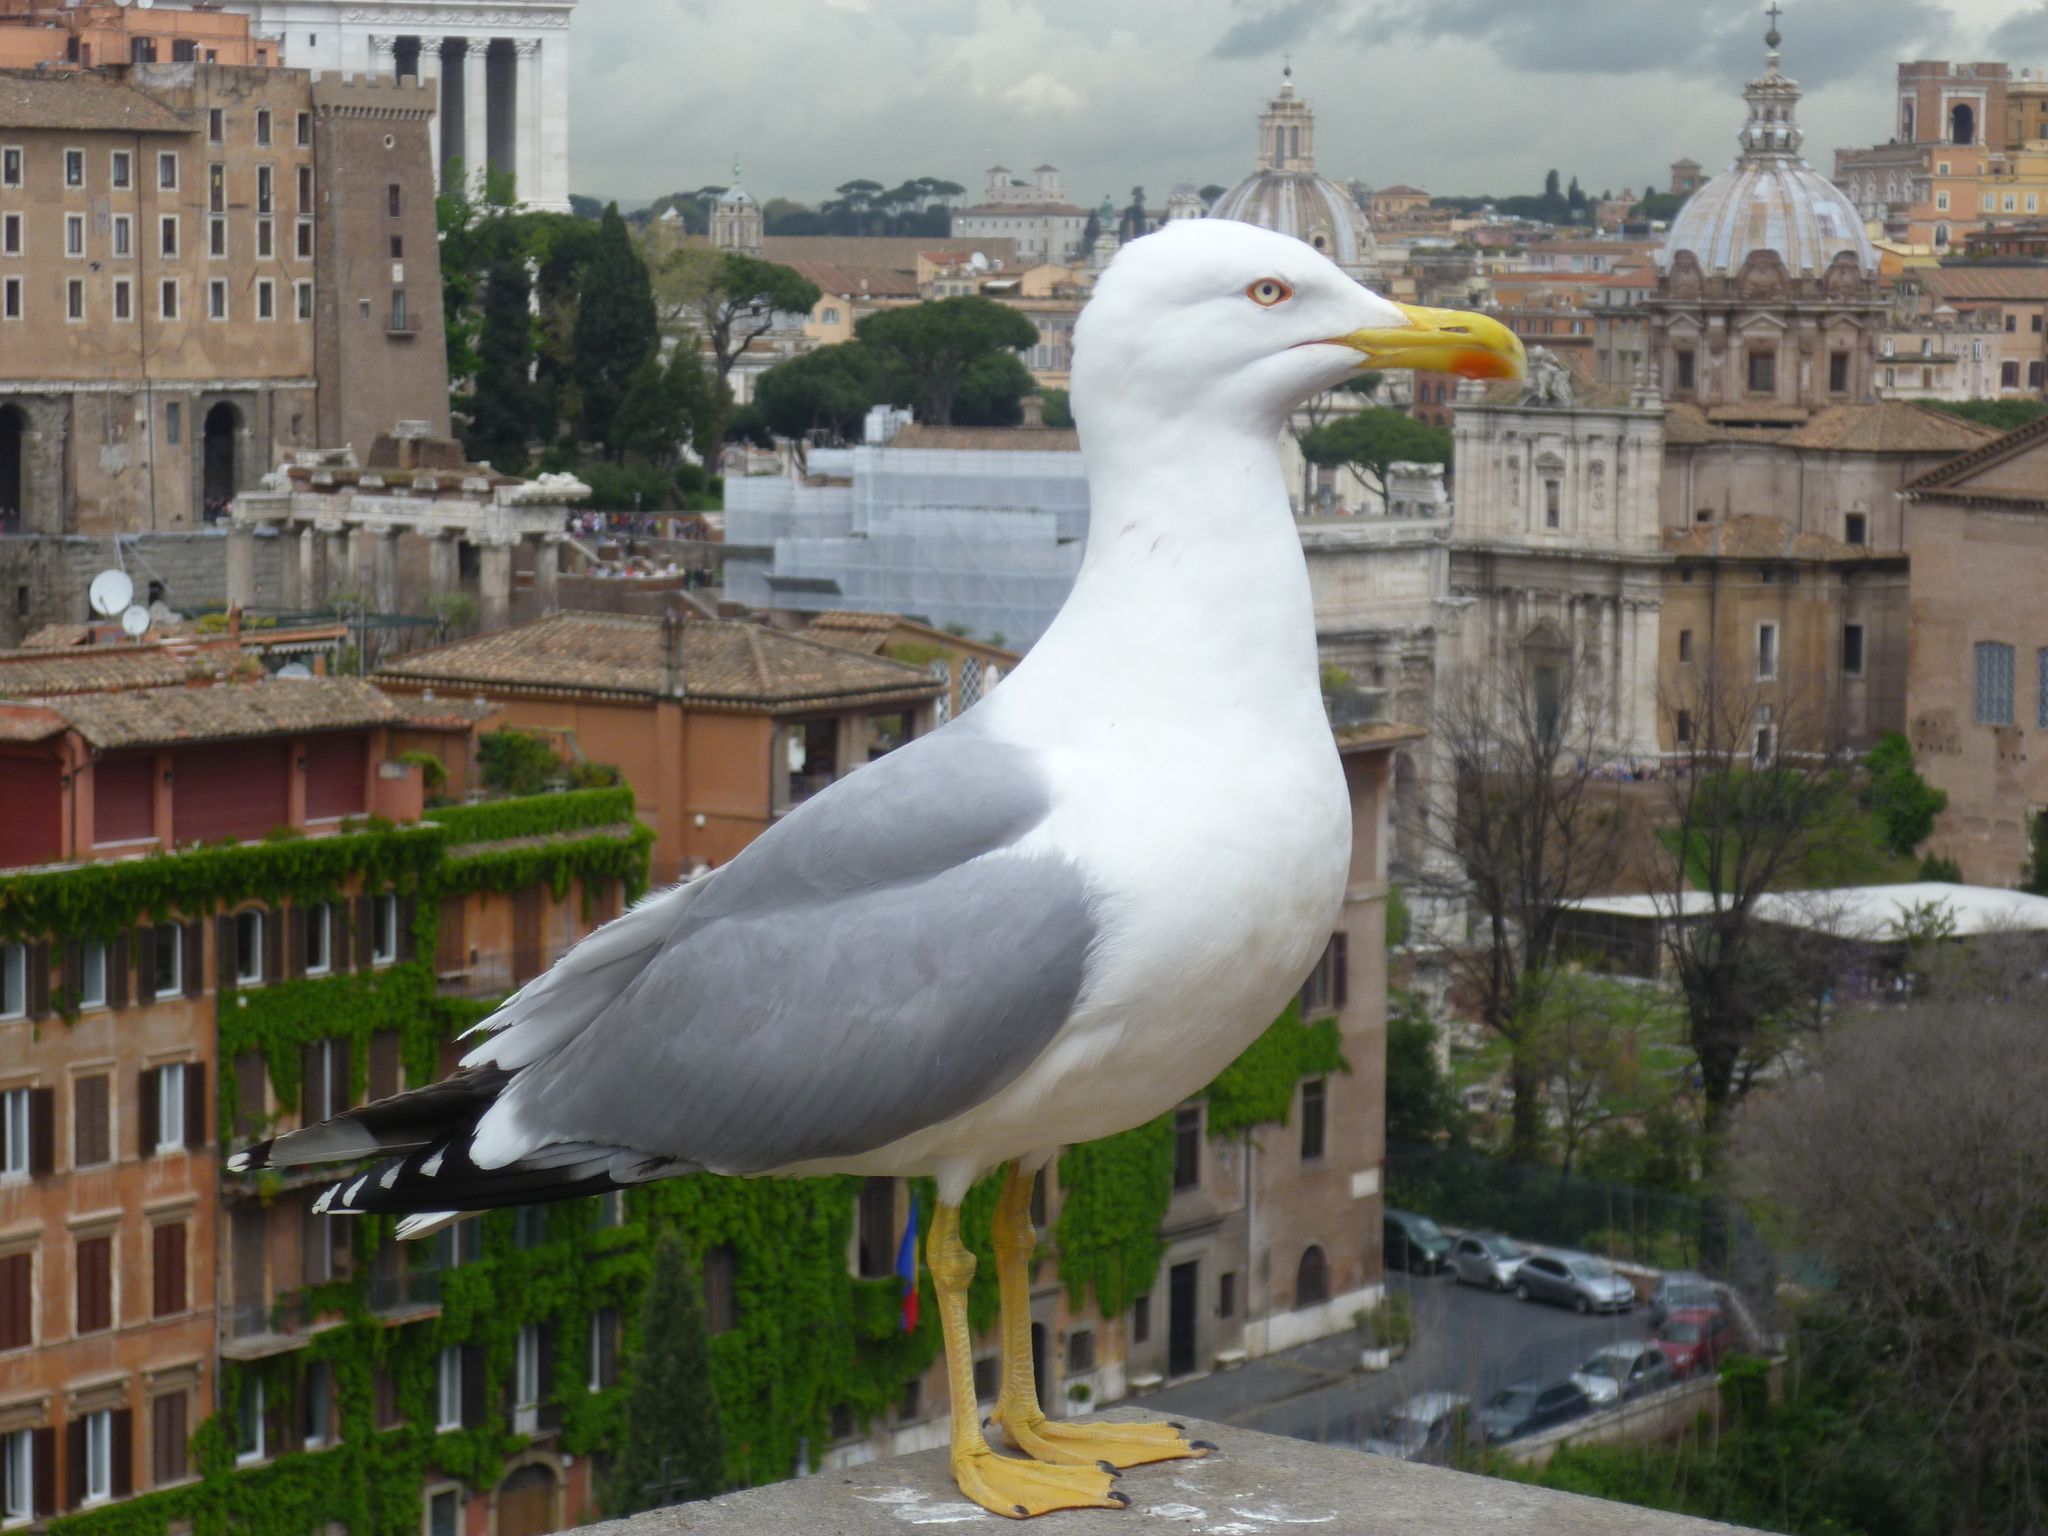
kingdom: Animalia
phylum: Chordata
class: Aves
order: Charadriiformes
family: Laridae
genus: Larus
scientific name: Larus michahellis
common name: Yellow-legged gull
